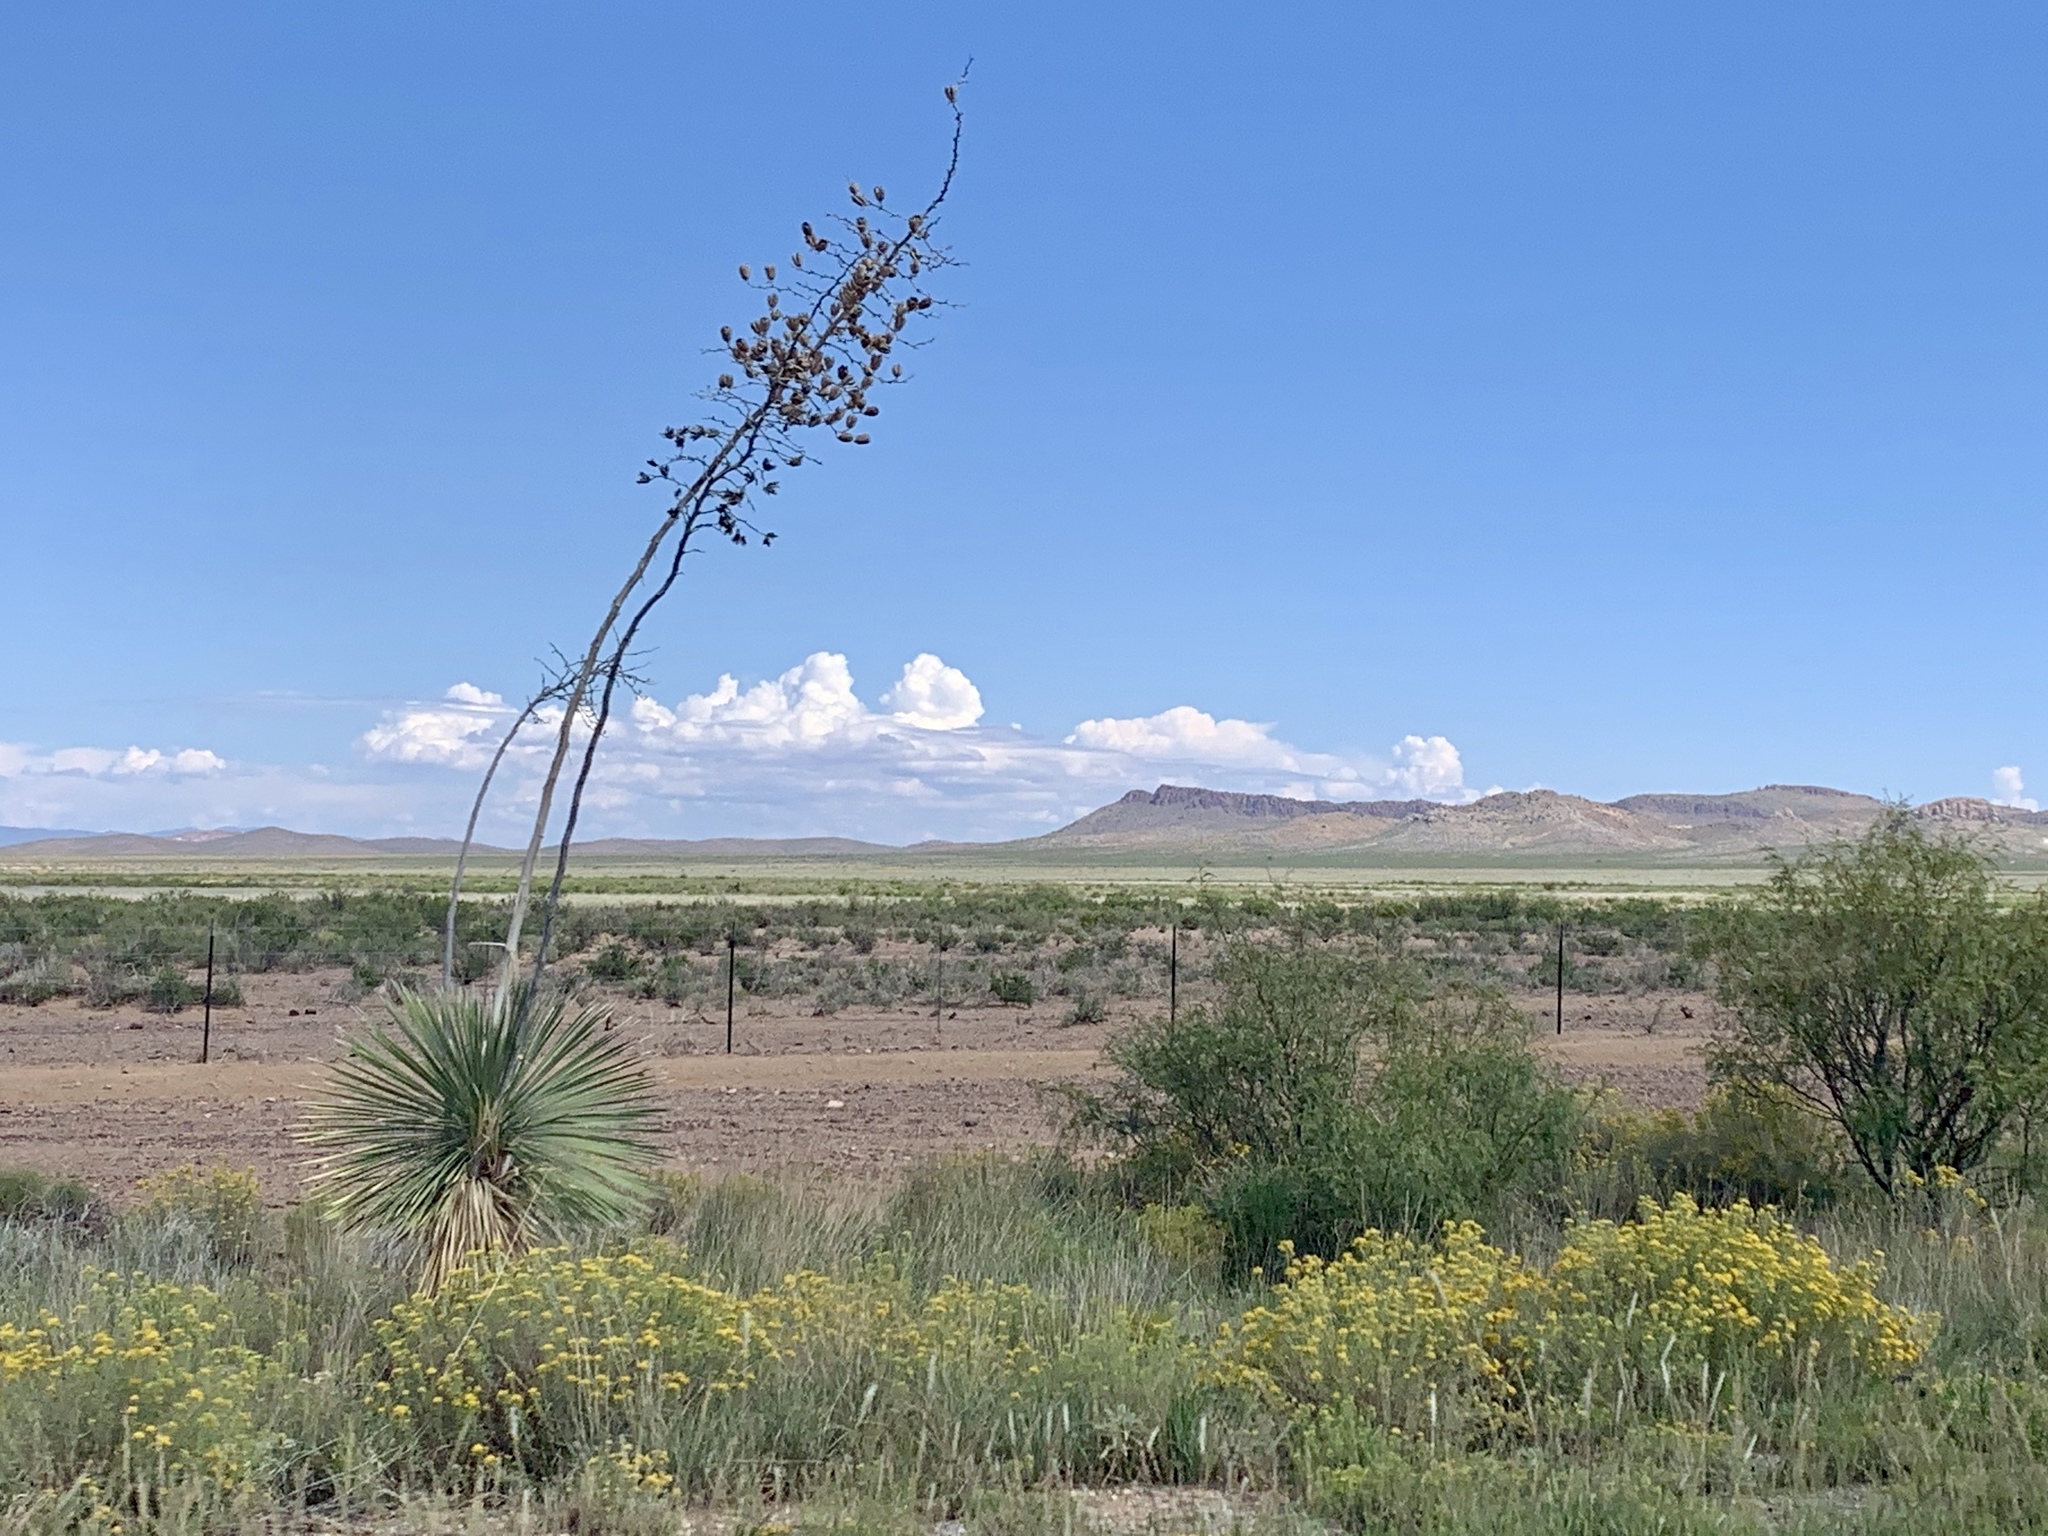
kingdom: Plantae
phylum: Tracheophyta
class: Liliopsida
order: Asparagales
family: Asparagaceae
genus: Yucca
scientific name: Yucca elata
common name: Palmella
